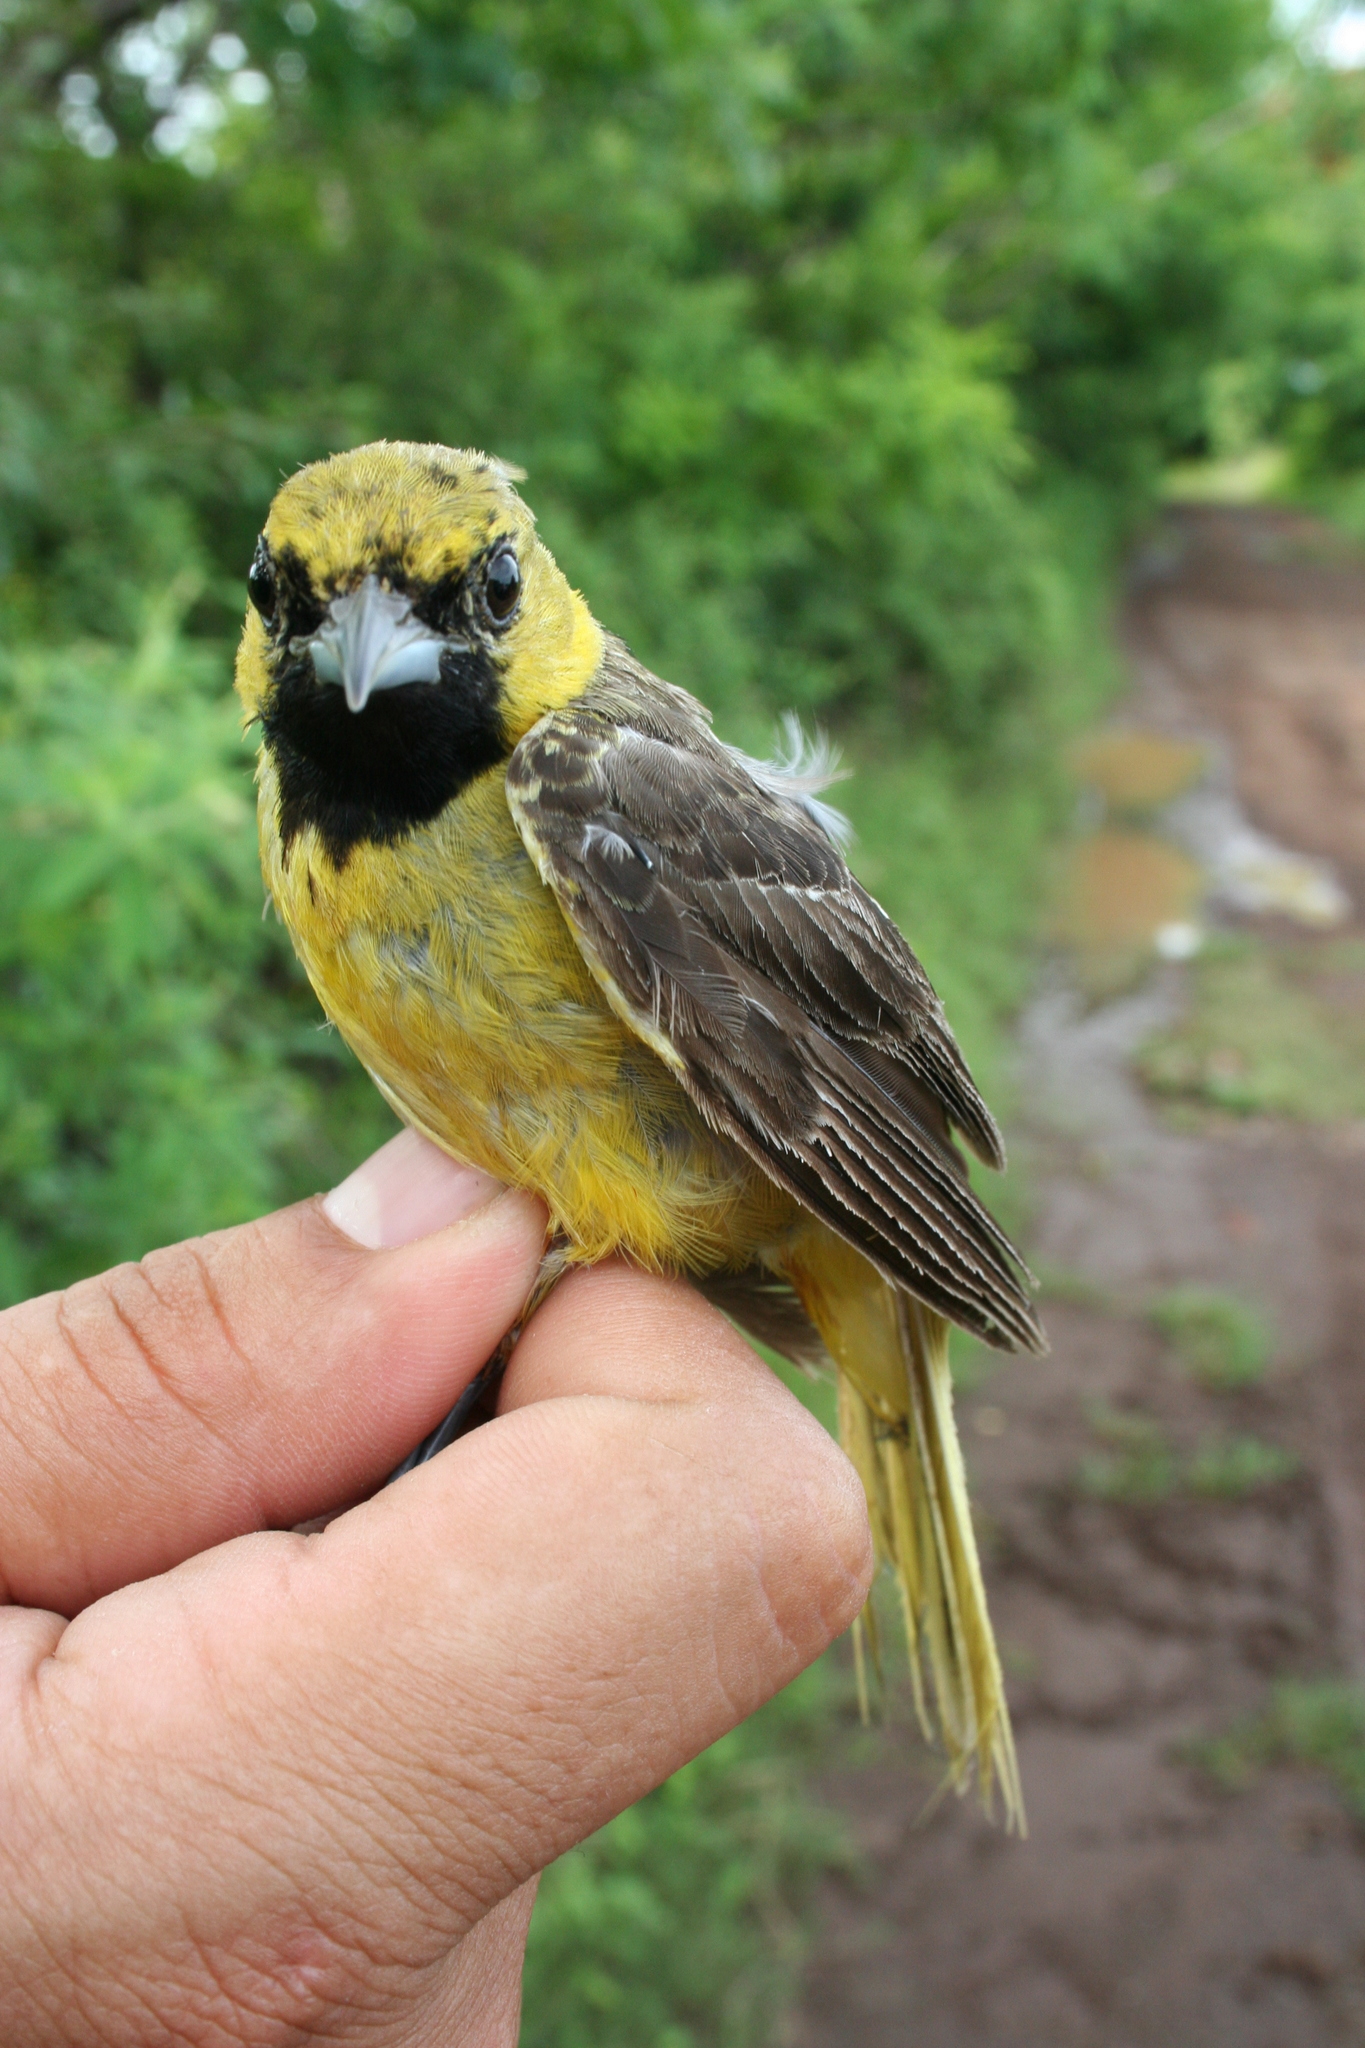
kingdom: Animalia
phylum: Chordata
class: Aves
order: Passeriformes
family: Icteridae
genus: Icterus
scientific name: Icterus spurius
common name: Orchard oriole
